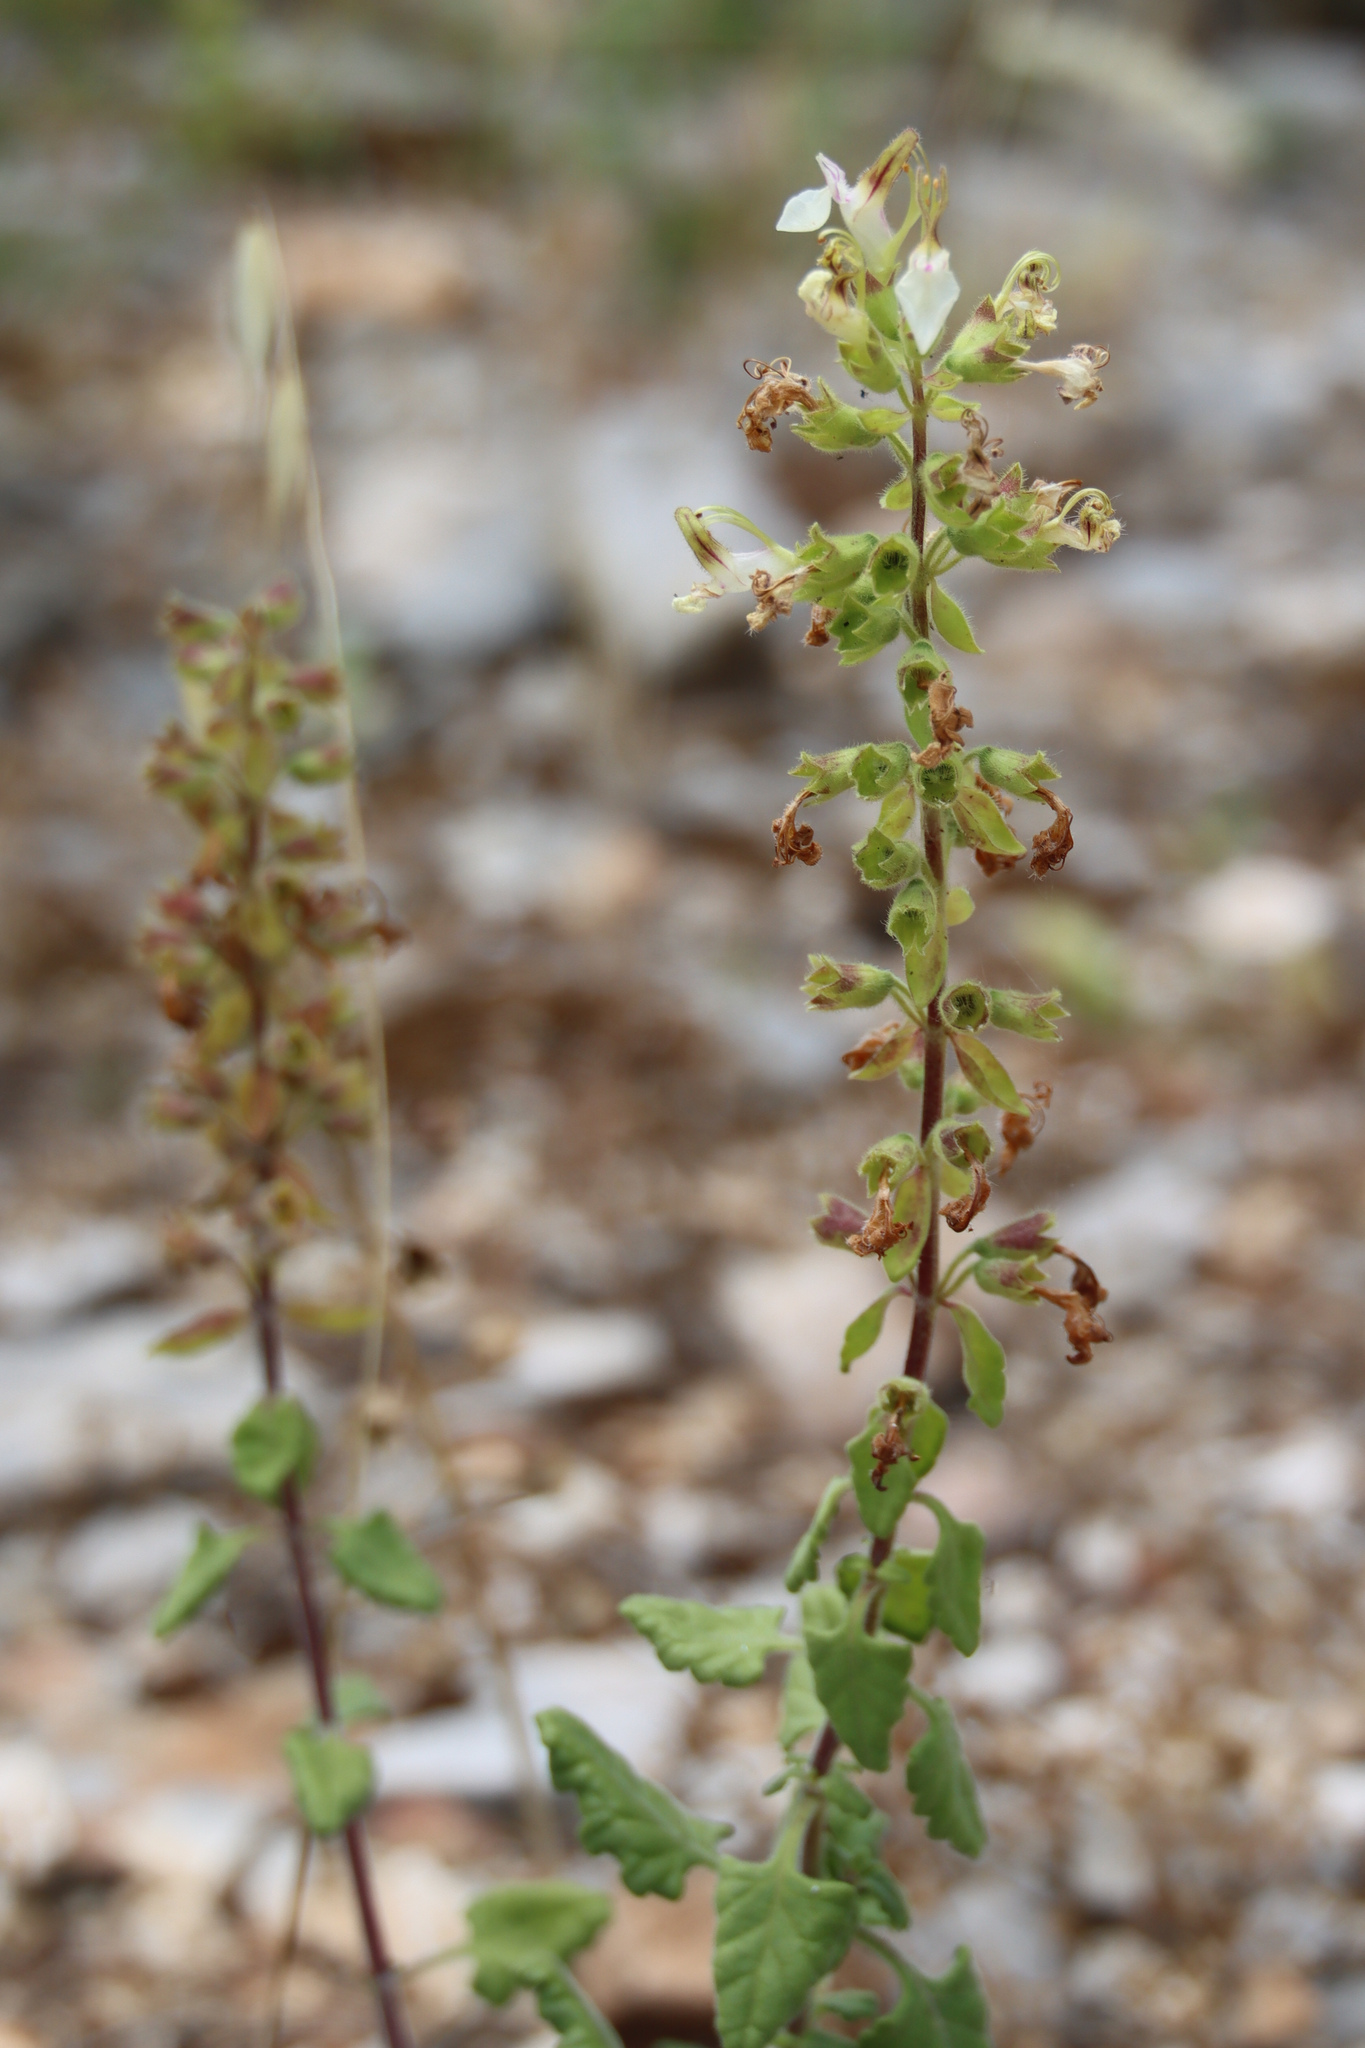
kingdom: Plantae
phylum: Tracheophyta
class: Magnoliopsida
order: Lamiales
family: Lamiaceae
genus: Teucrium
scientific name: Teucrium flavum
